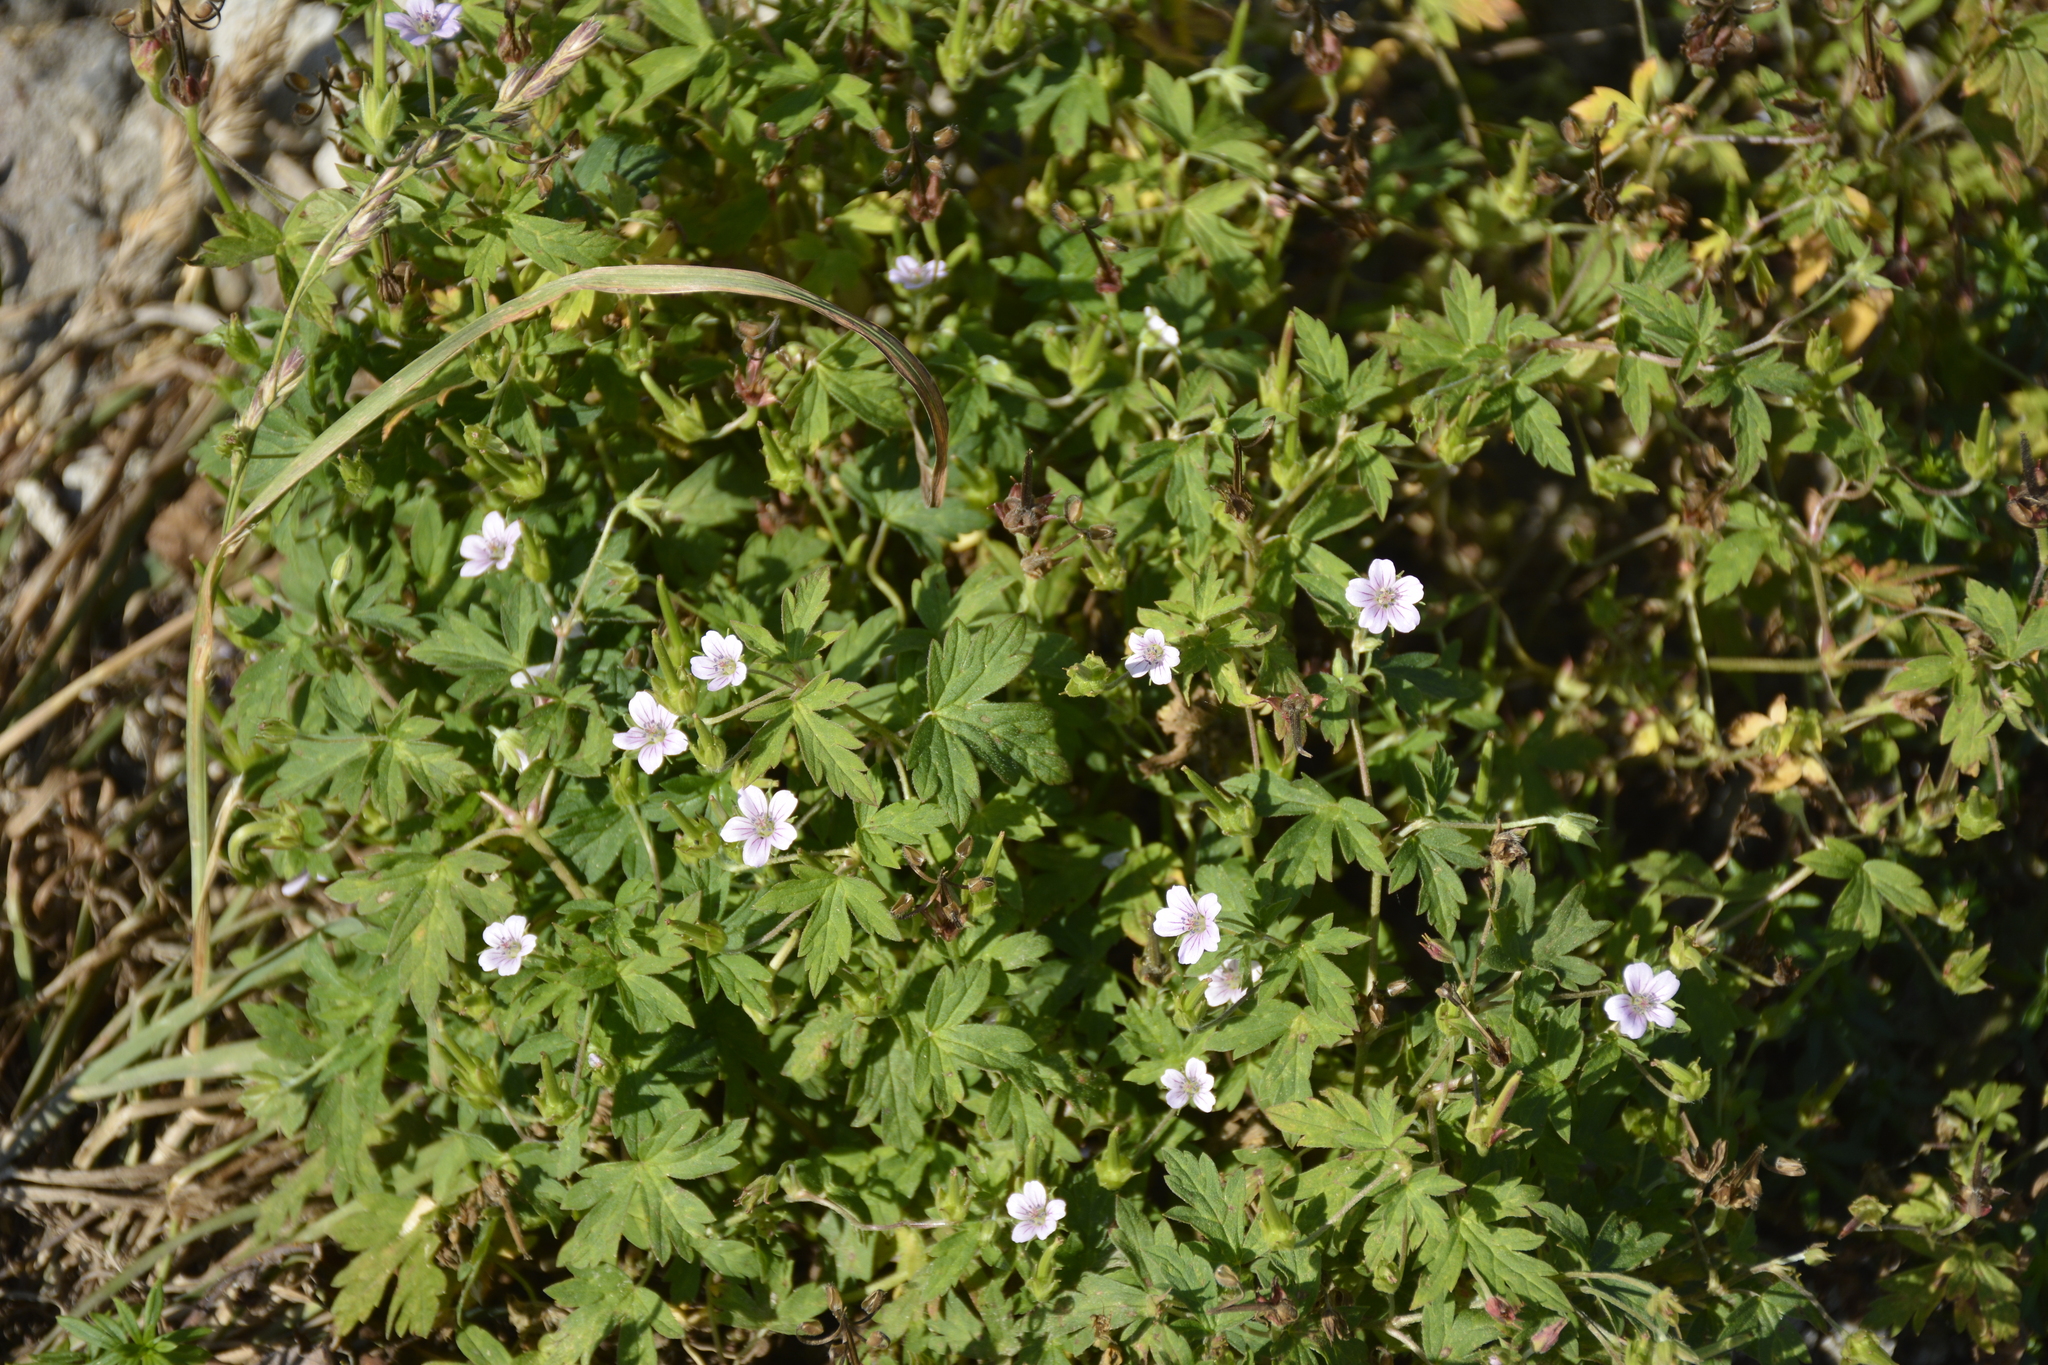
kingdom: Plantae
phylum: Tracheophyta
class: Magnoliopsida
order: Geraniales
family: Geraniaceae
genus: Geranium
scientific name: Geranium sibiricum
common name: Siberian crane's-bill
